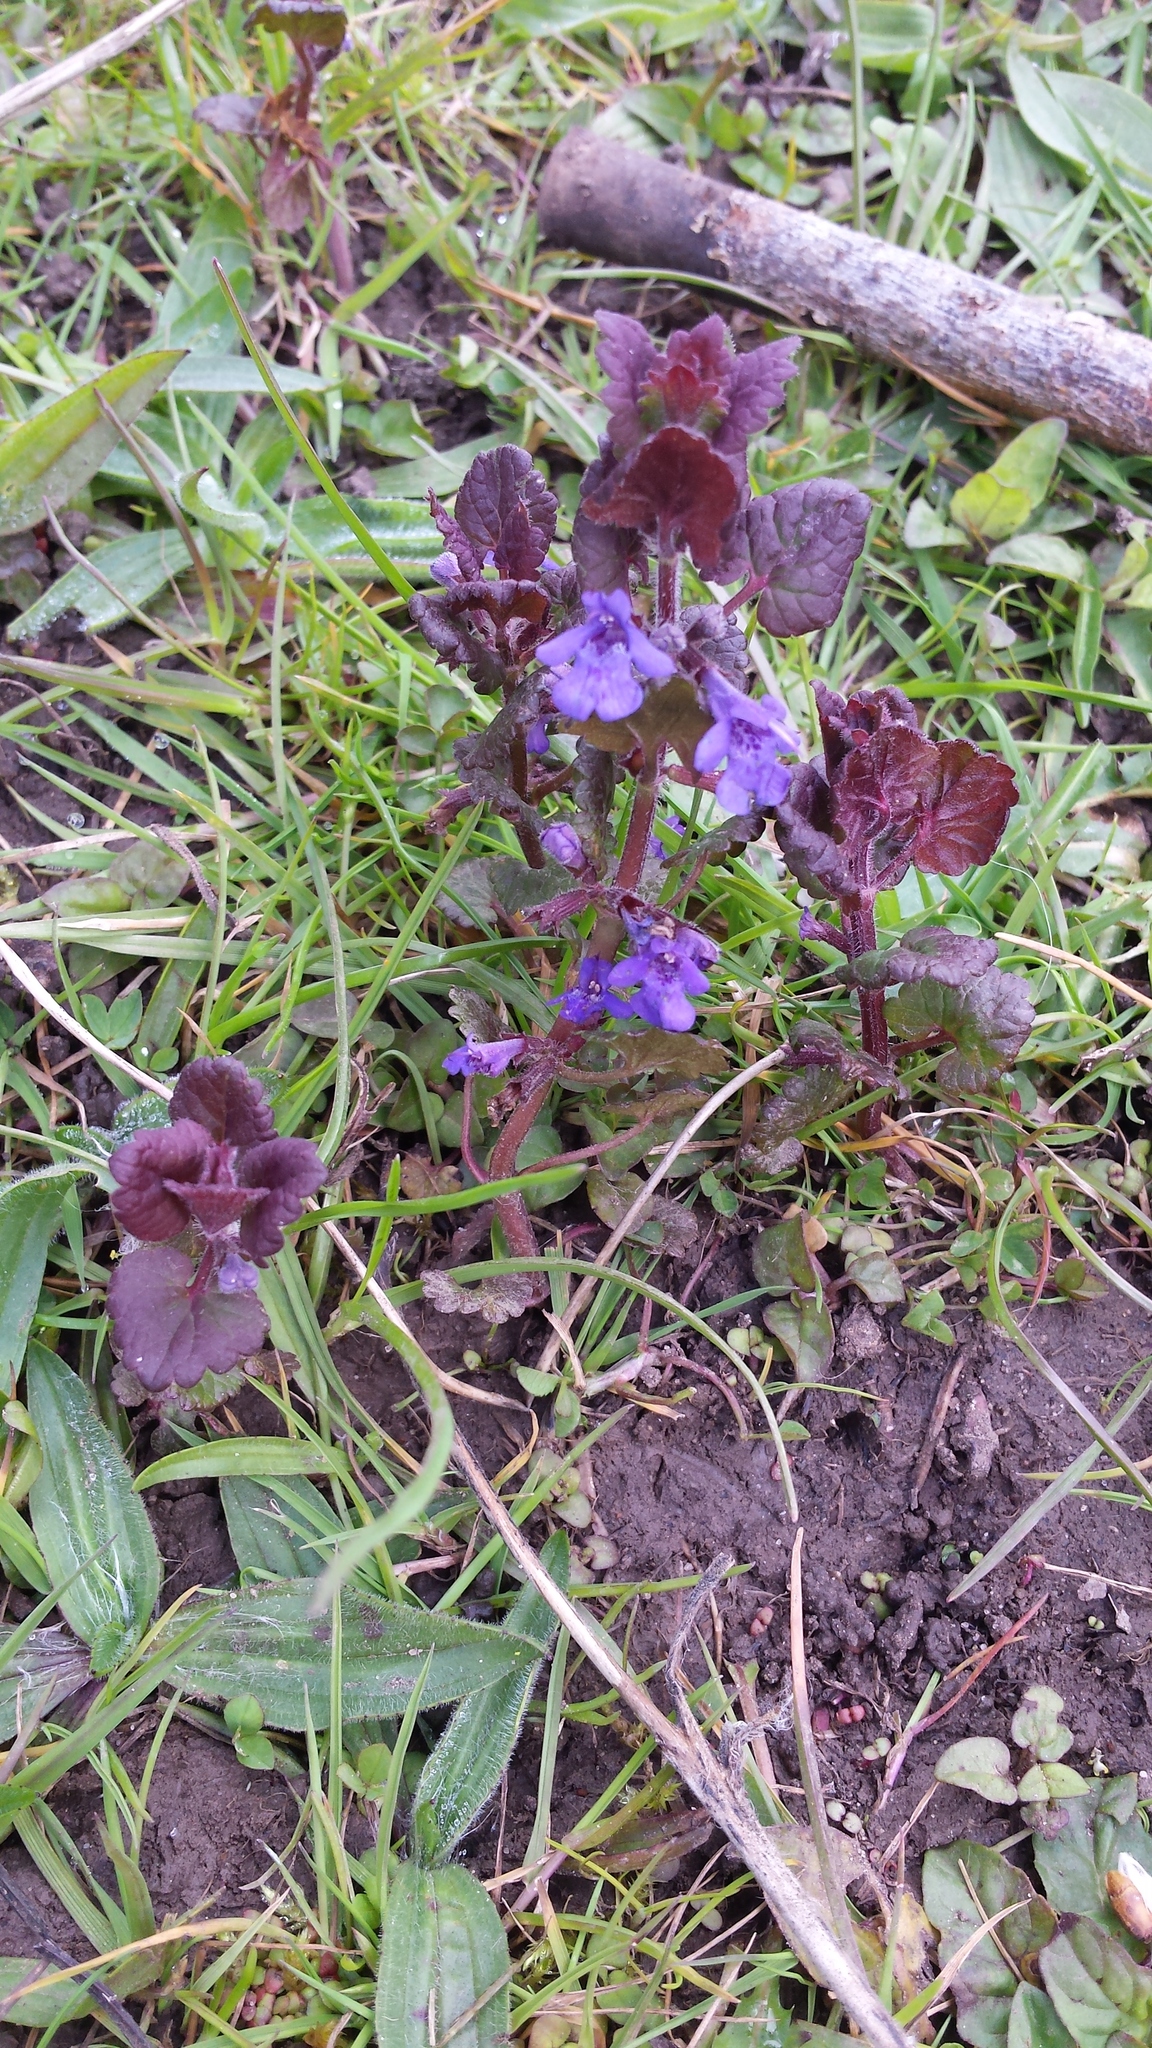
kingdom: Plantae
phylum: Tracheophyta
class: Magnoliopsida
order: Lamiales
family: Lamiaceae
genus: Glechoma
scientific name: Glechoma hederacea
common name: Ground ivy
